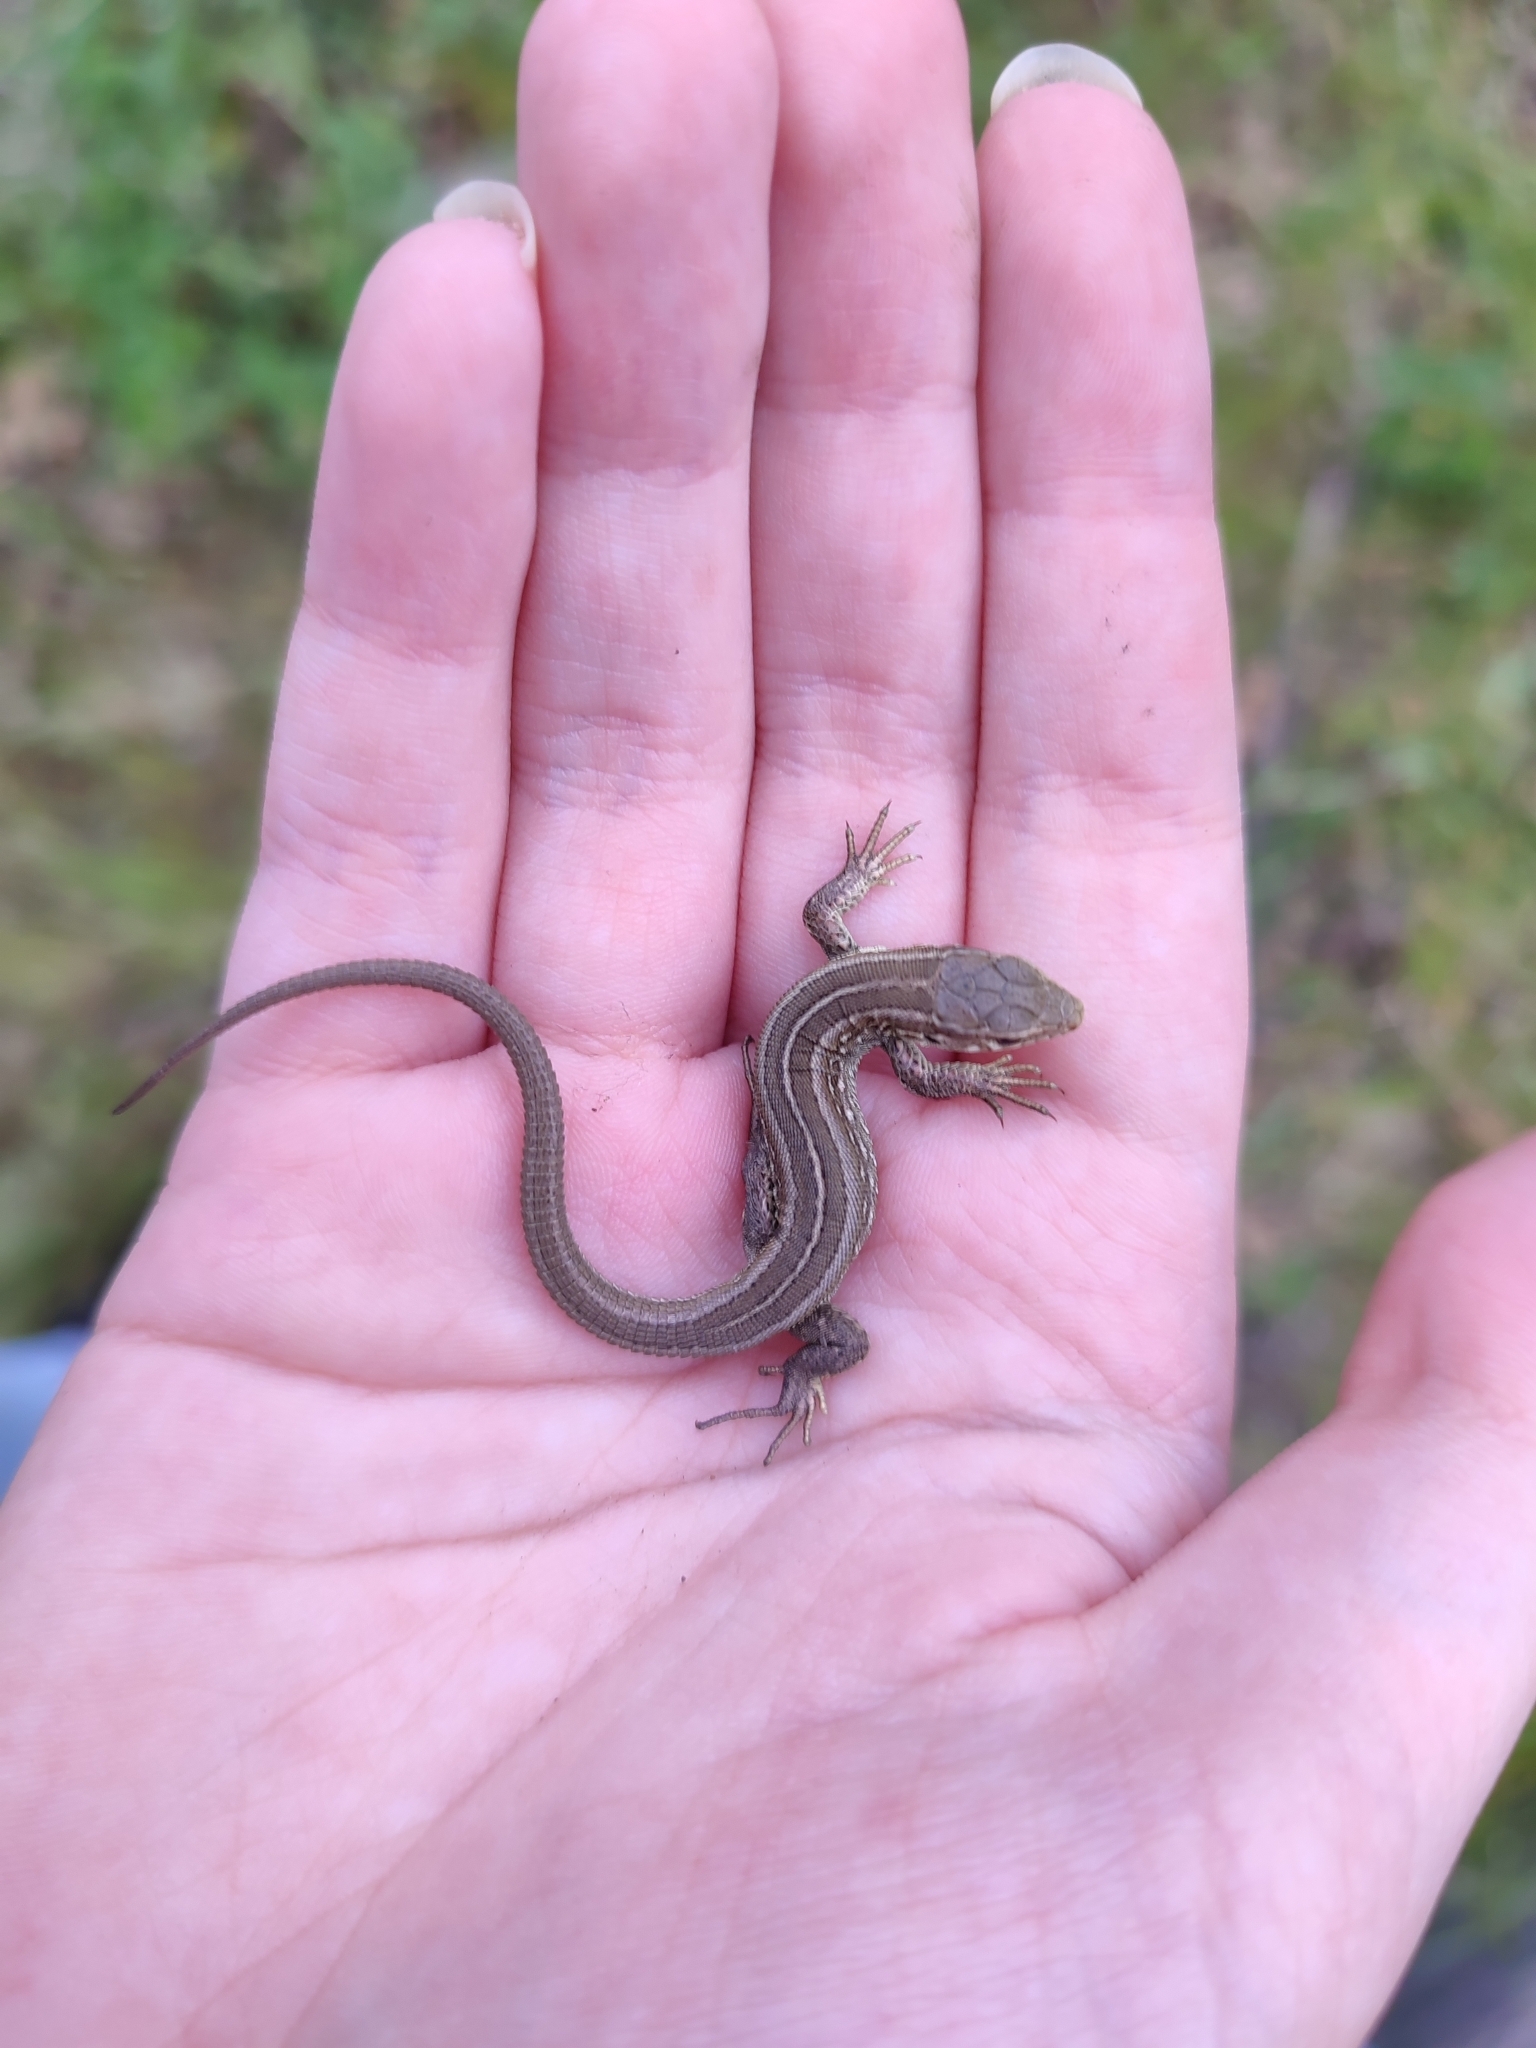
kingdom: Animalia
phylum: Chordata
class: Squamata
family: Lacertidae
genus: Lacerta
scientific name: Lacerta agilis
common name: Sand lizard
